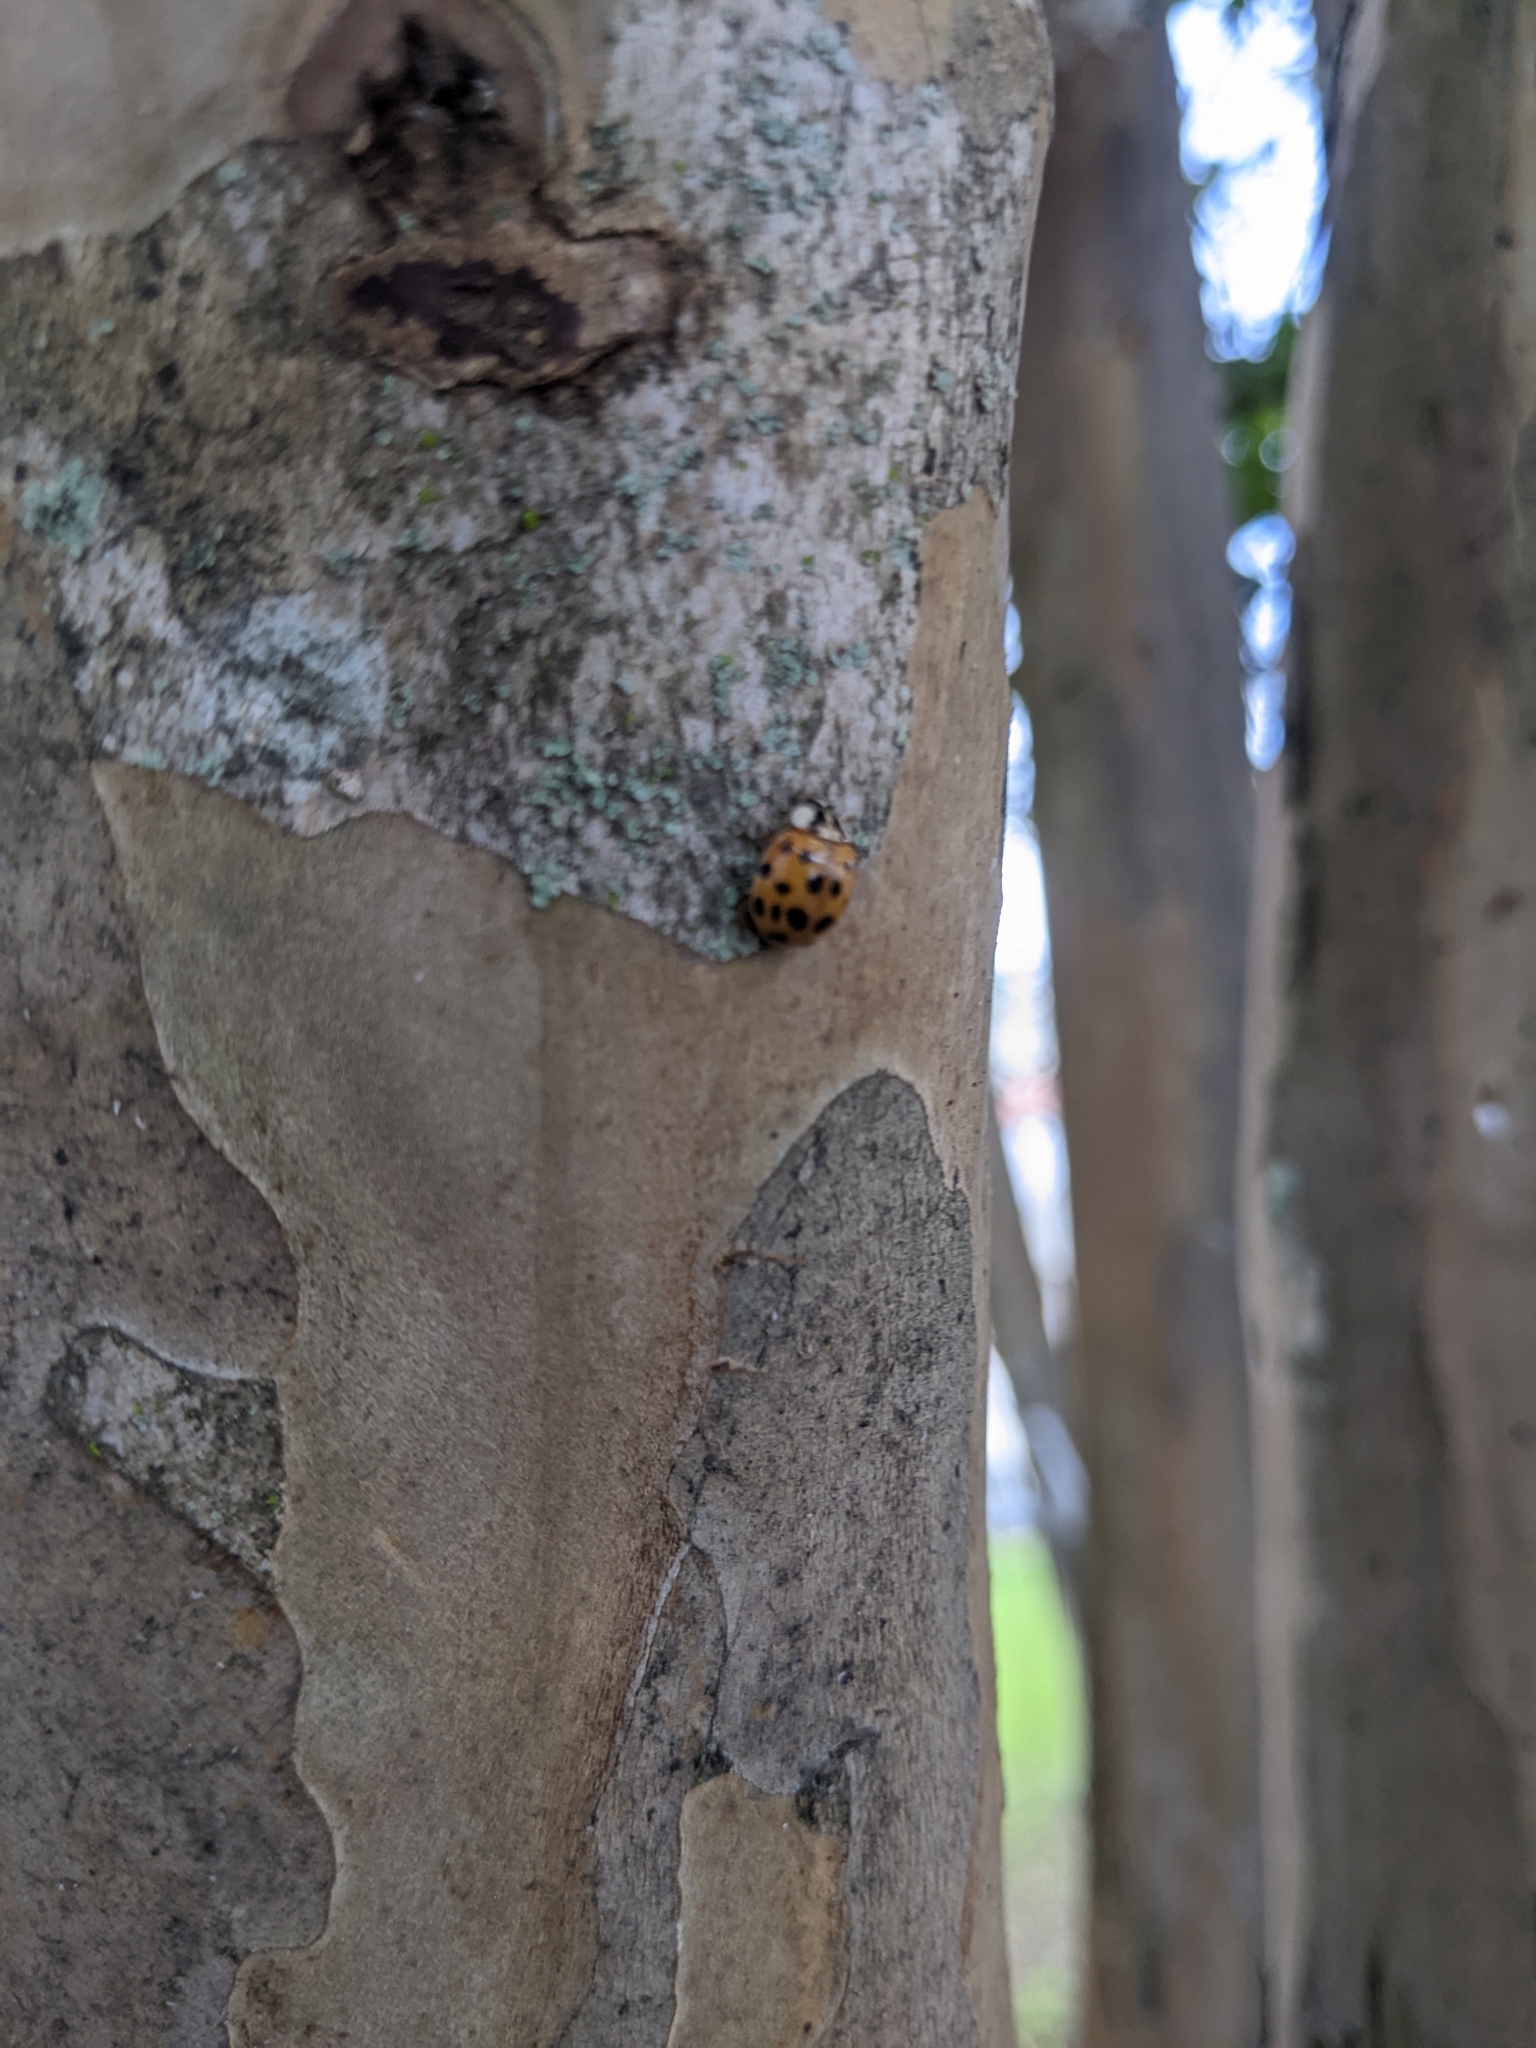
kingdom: Animalia
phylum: Arthropoda
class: Insecta
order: Coleoptera
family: Coccinellidae
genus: Harmonia
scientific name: Harmonia axyridis
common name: Harlequin ladybird
